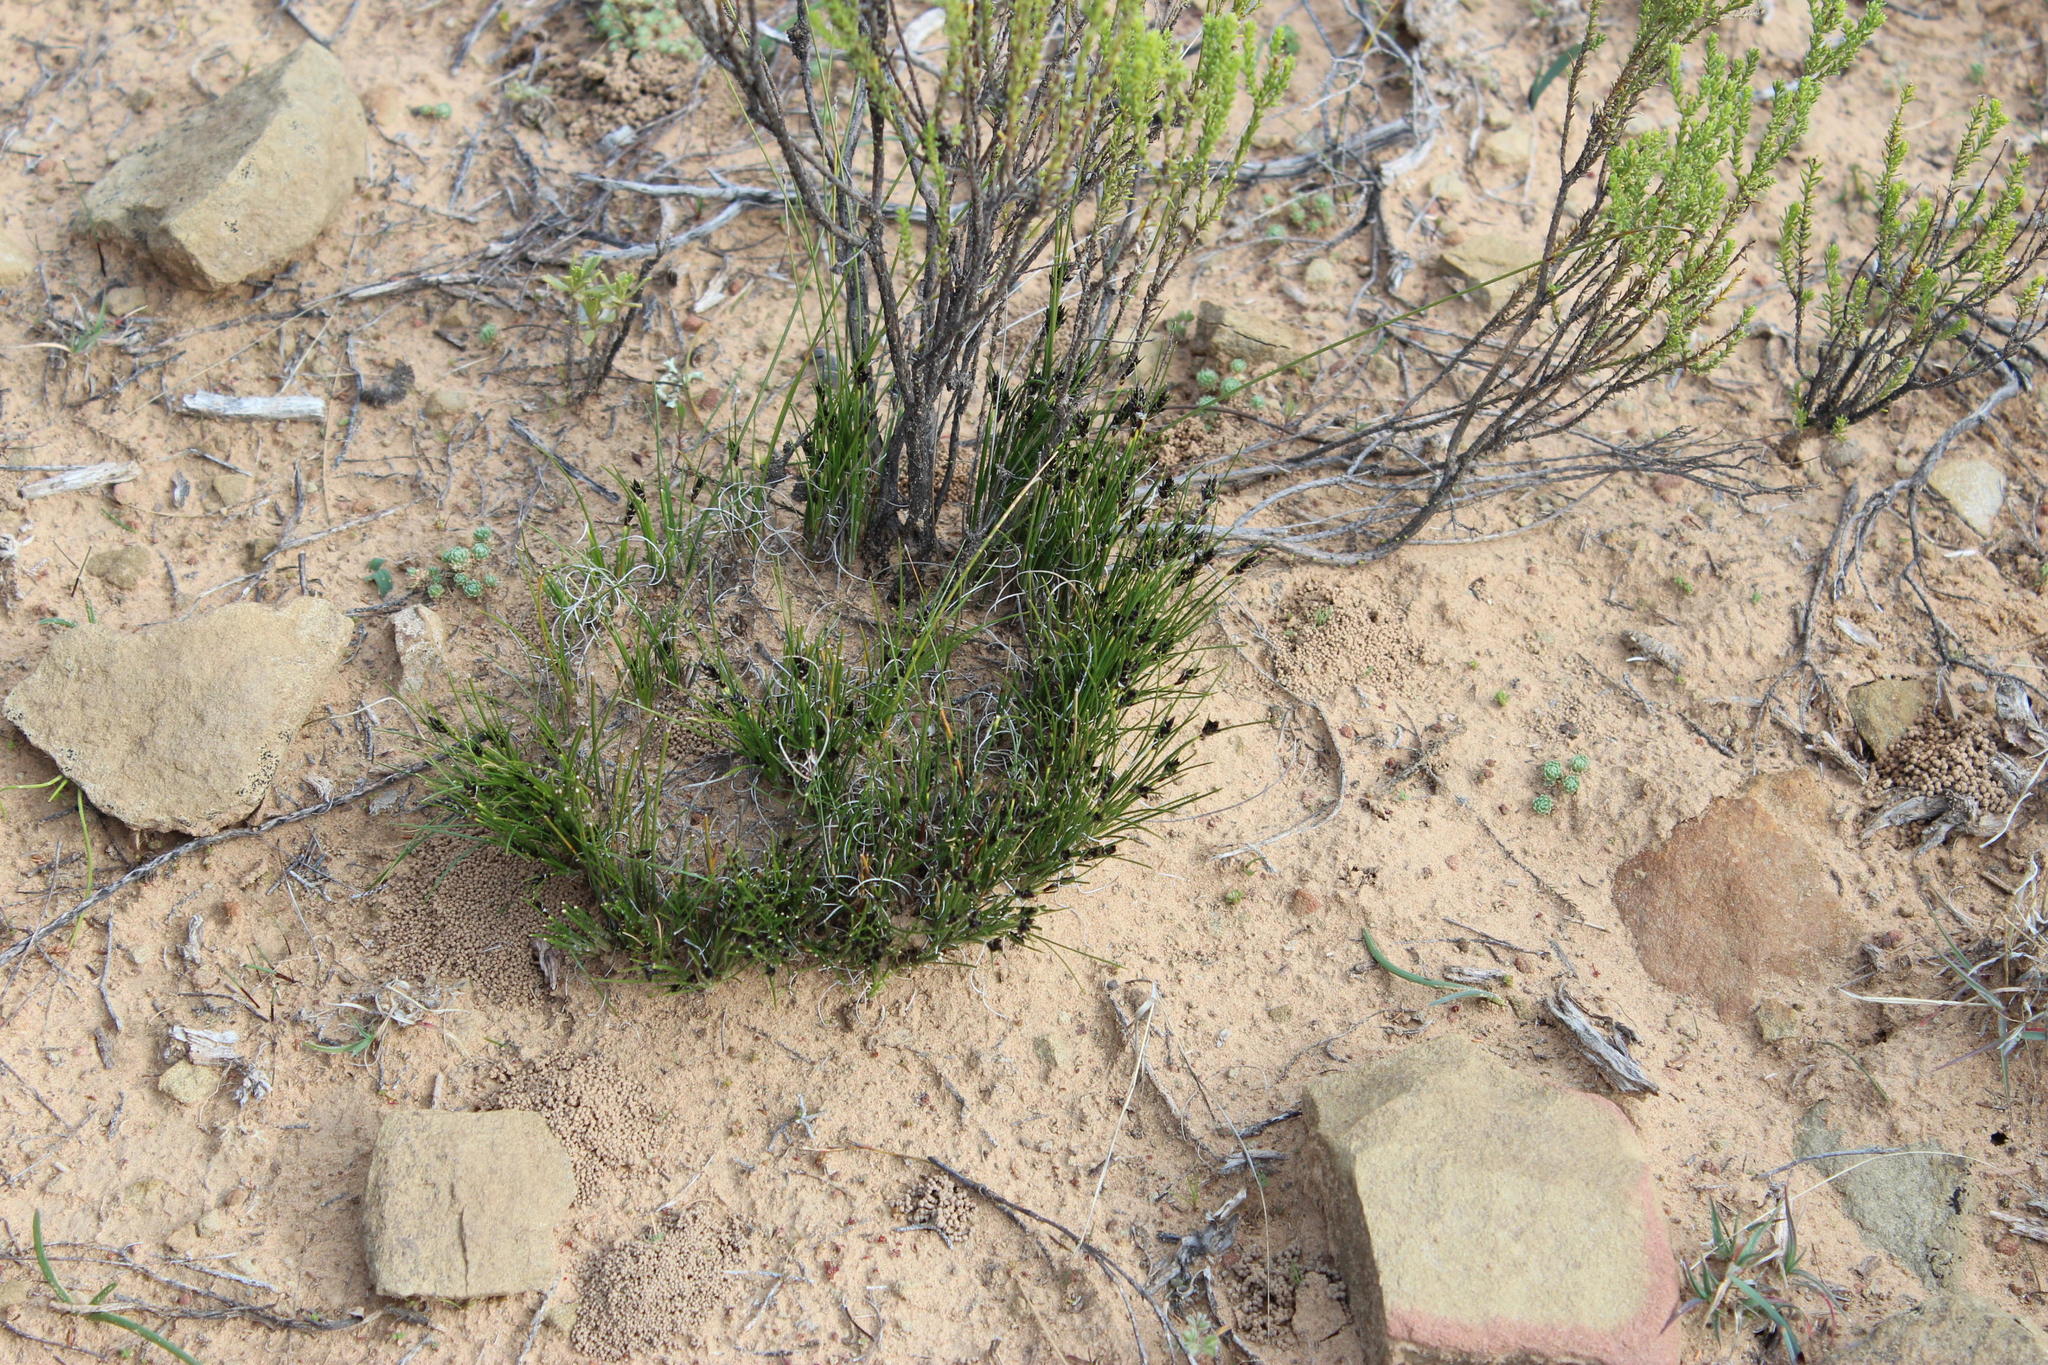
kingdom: Plantae
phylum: Tracheophyta
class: Liliopsida
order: Poales
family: Cyperaceae
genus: Ficinia
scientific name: Ficinia compasbergensis
